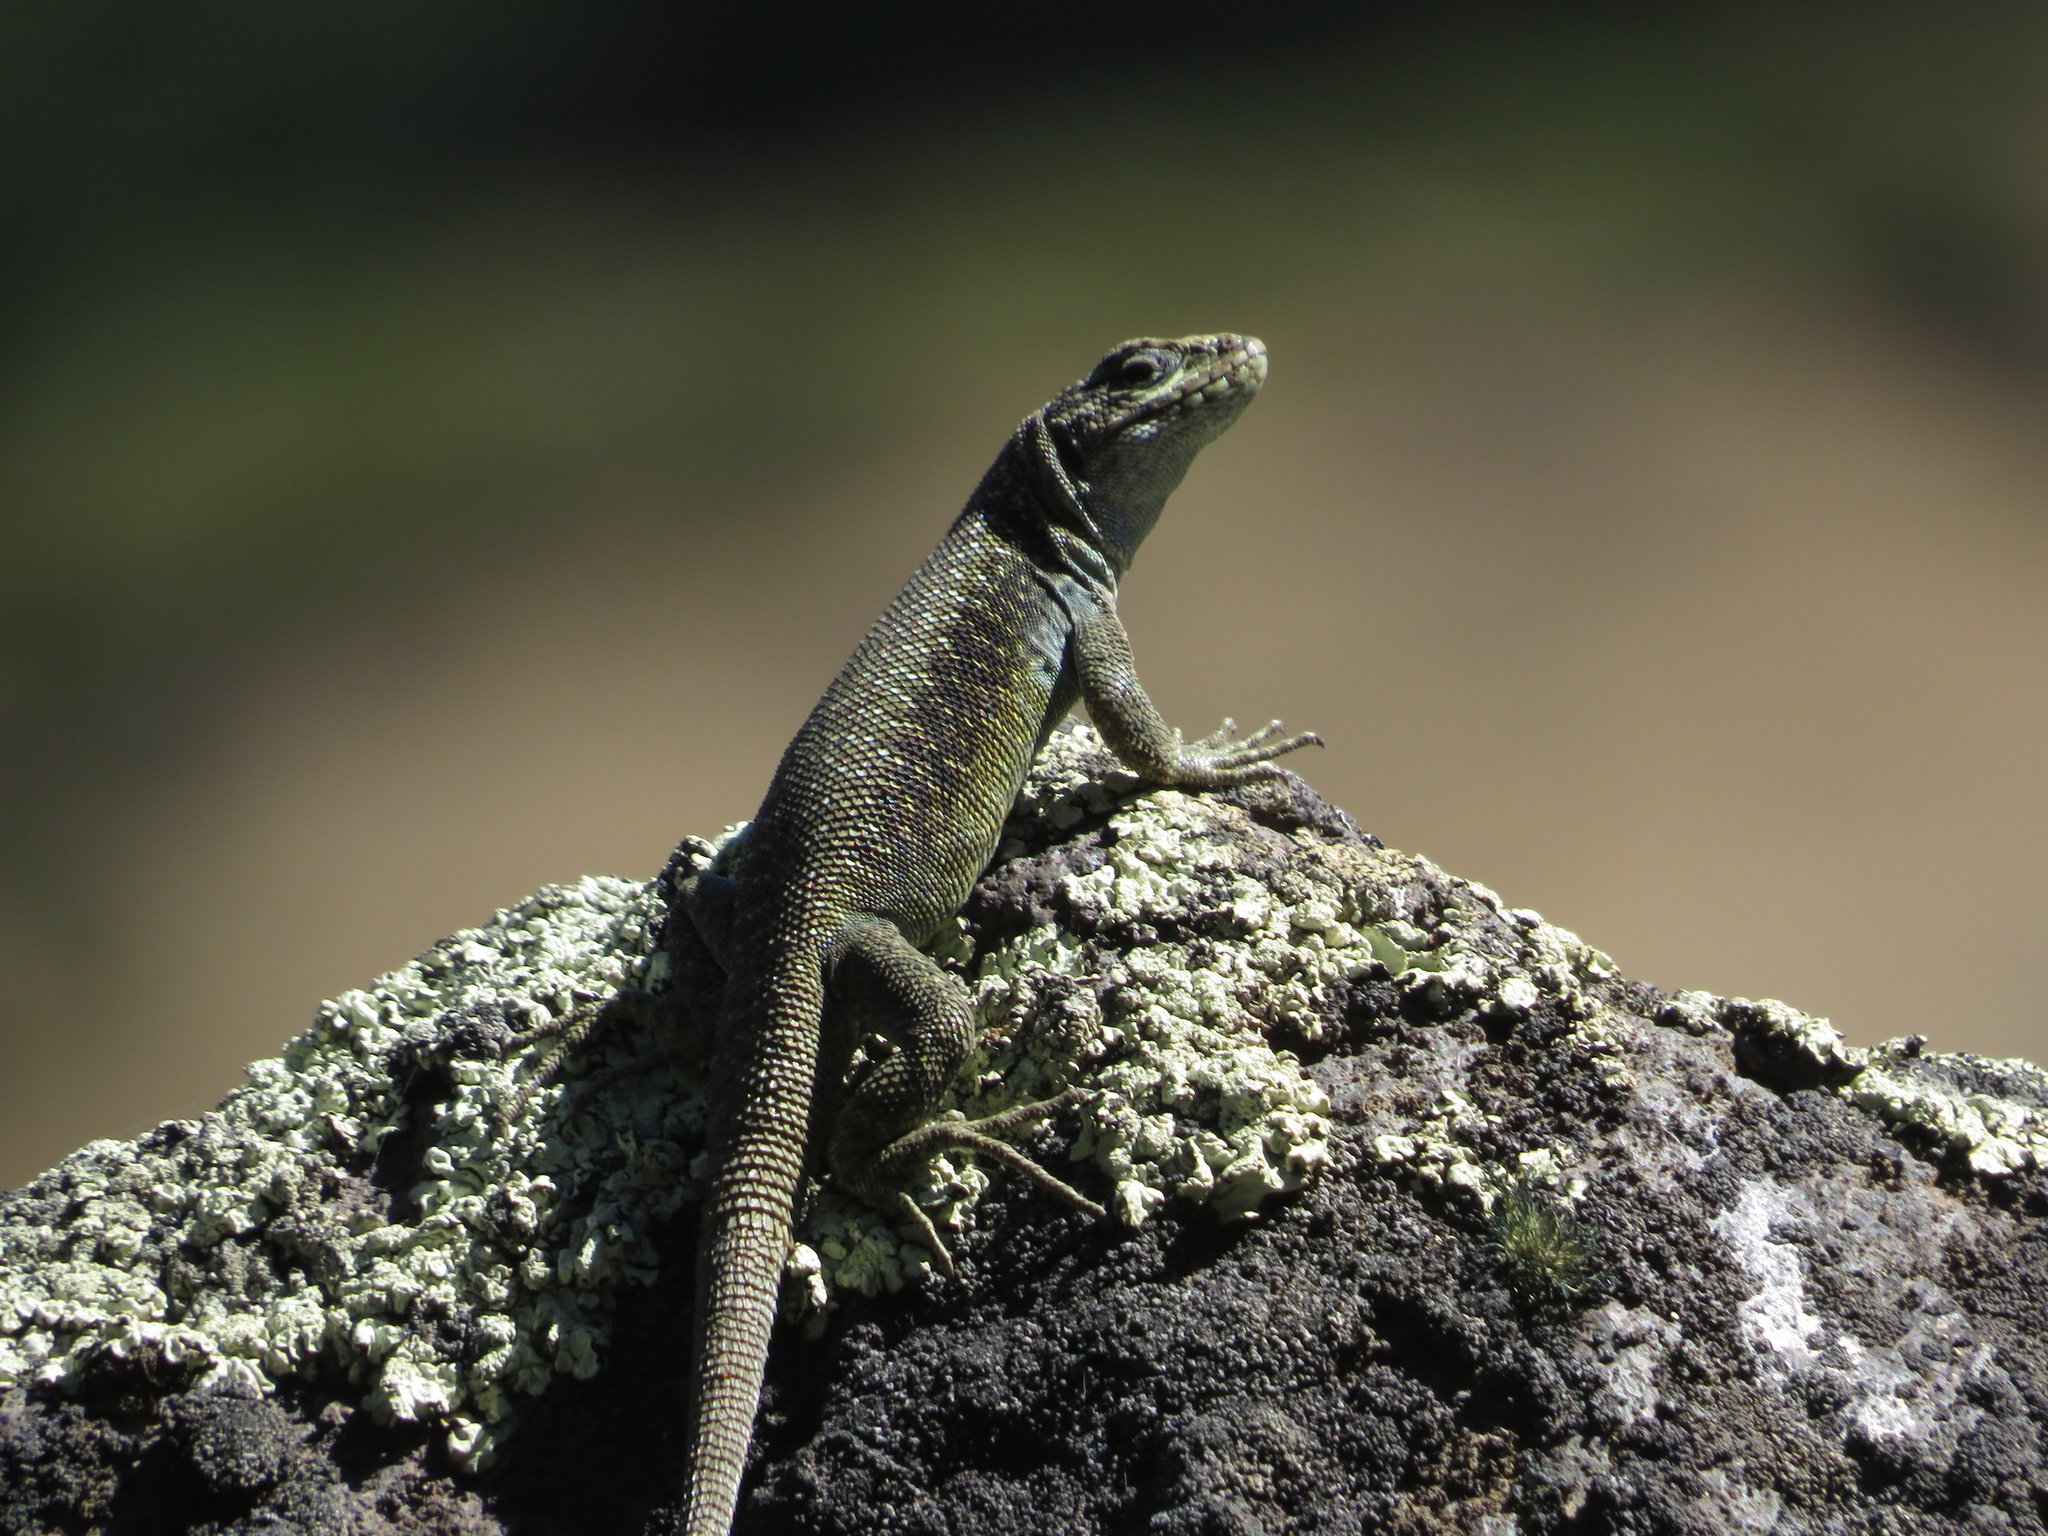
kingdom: Animalia
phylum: Chordata
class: Squamata
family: Liolaemidae
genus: Liolaemus
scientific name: Liolaemus elongatus
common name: Elongate tree iguana
